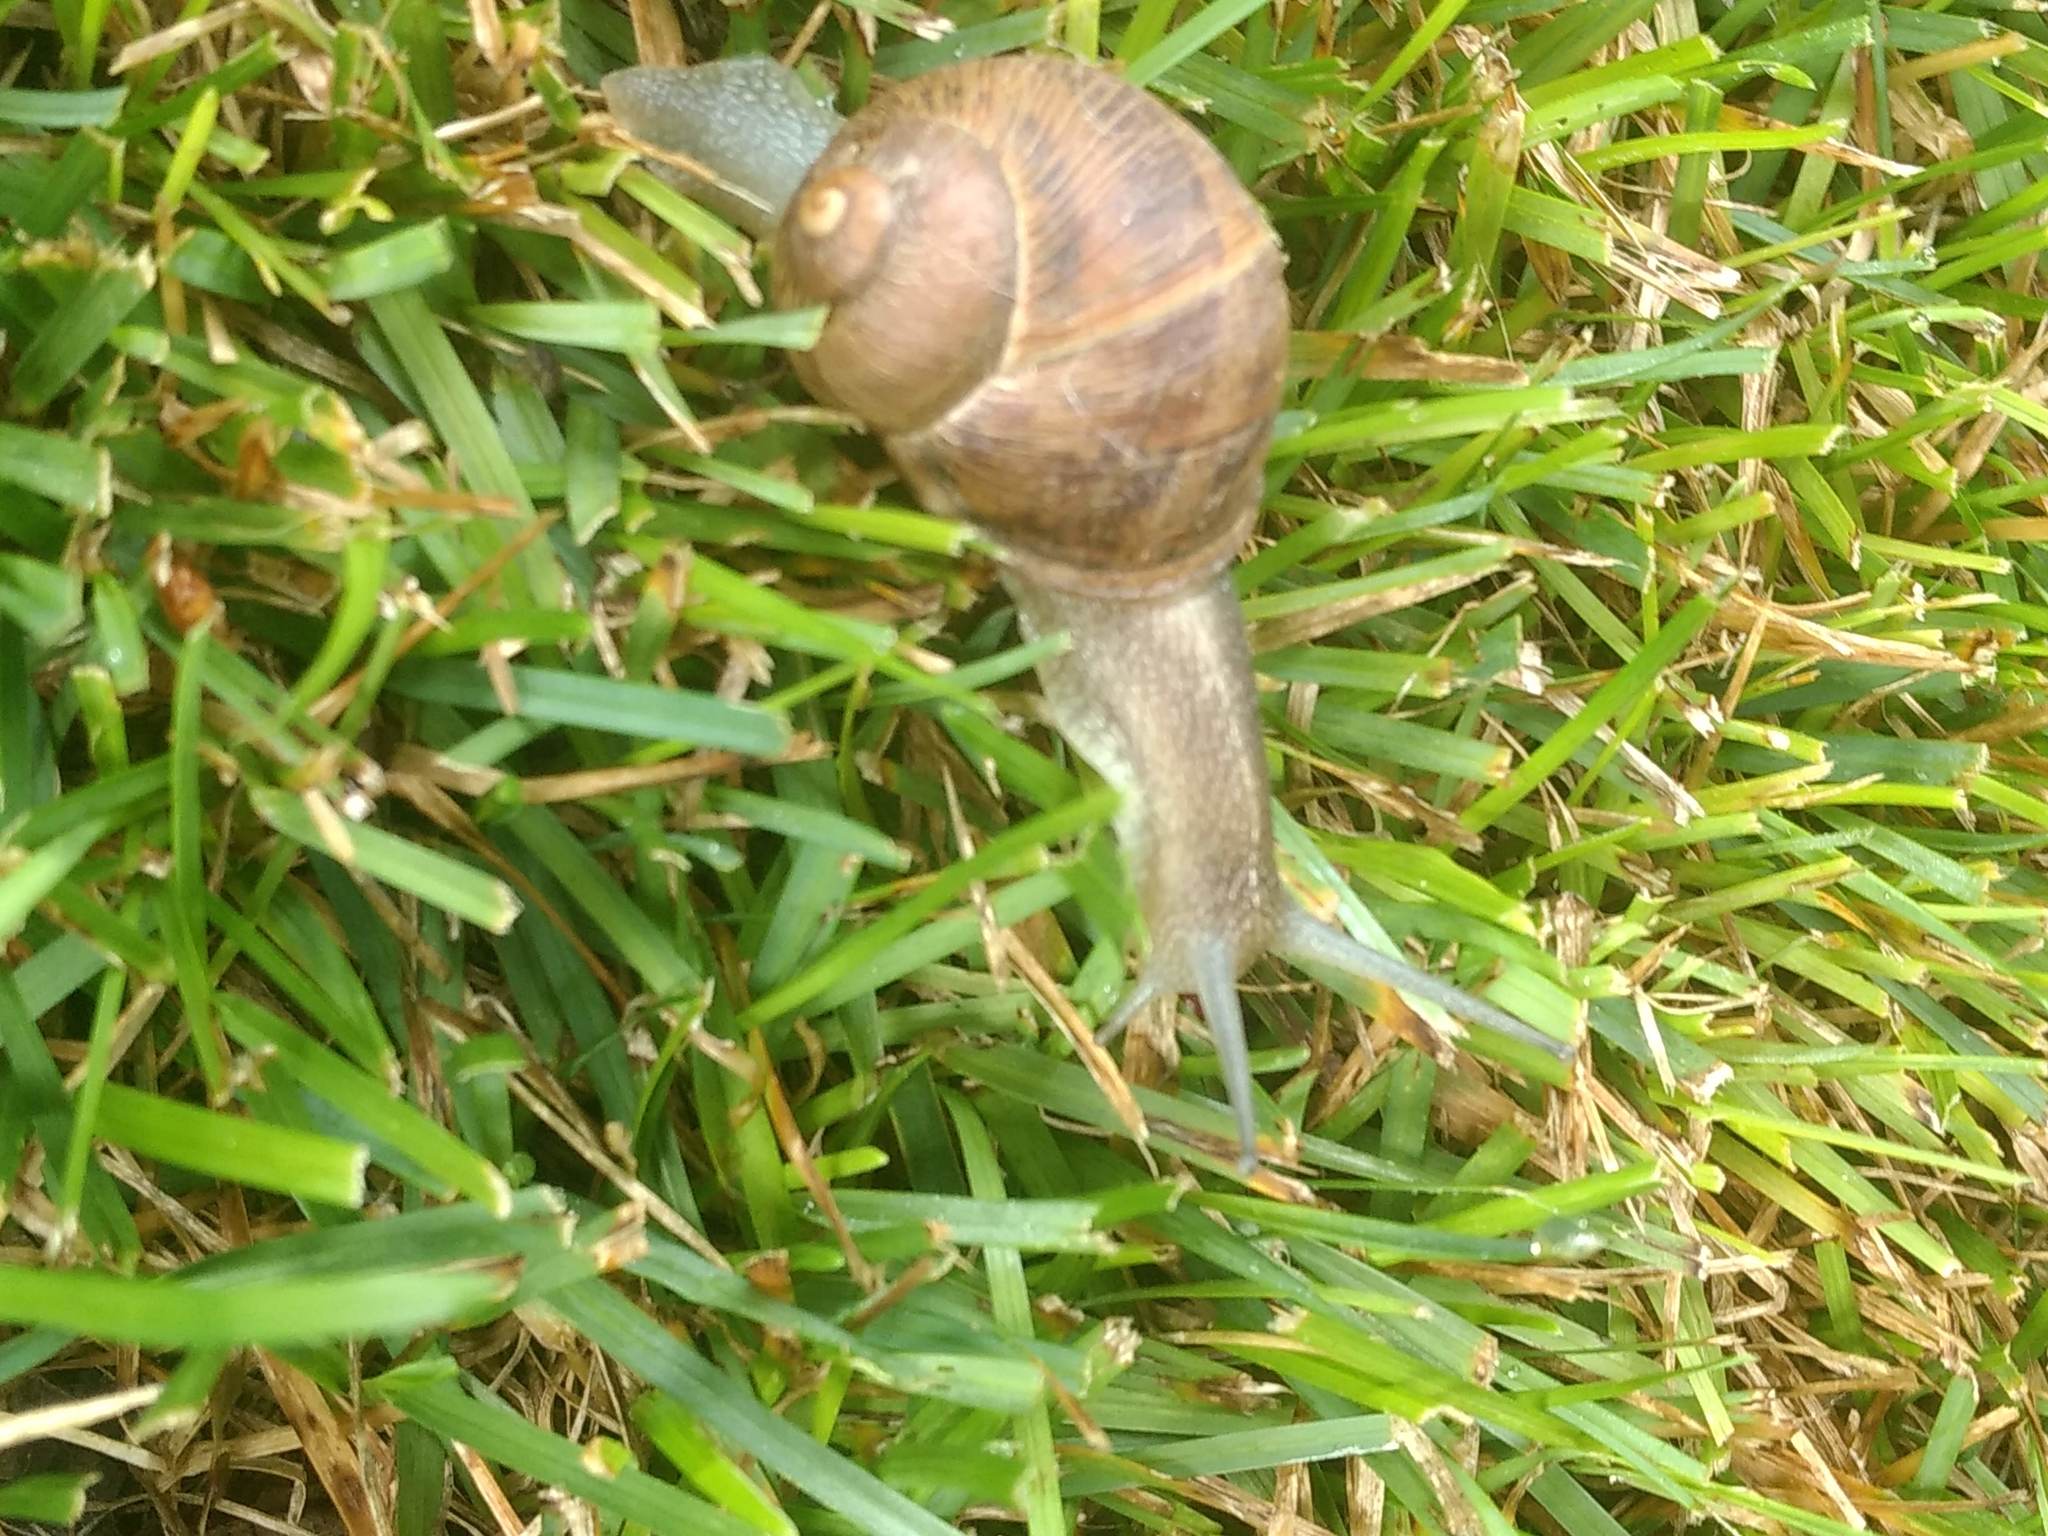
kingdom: Animalia
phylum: Mollusca
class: Gastropoda
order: Stylommatophora
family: Helicidae
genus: Cornu
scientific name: Cornu aspersum
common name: Brown garden snail
